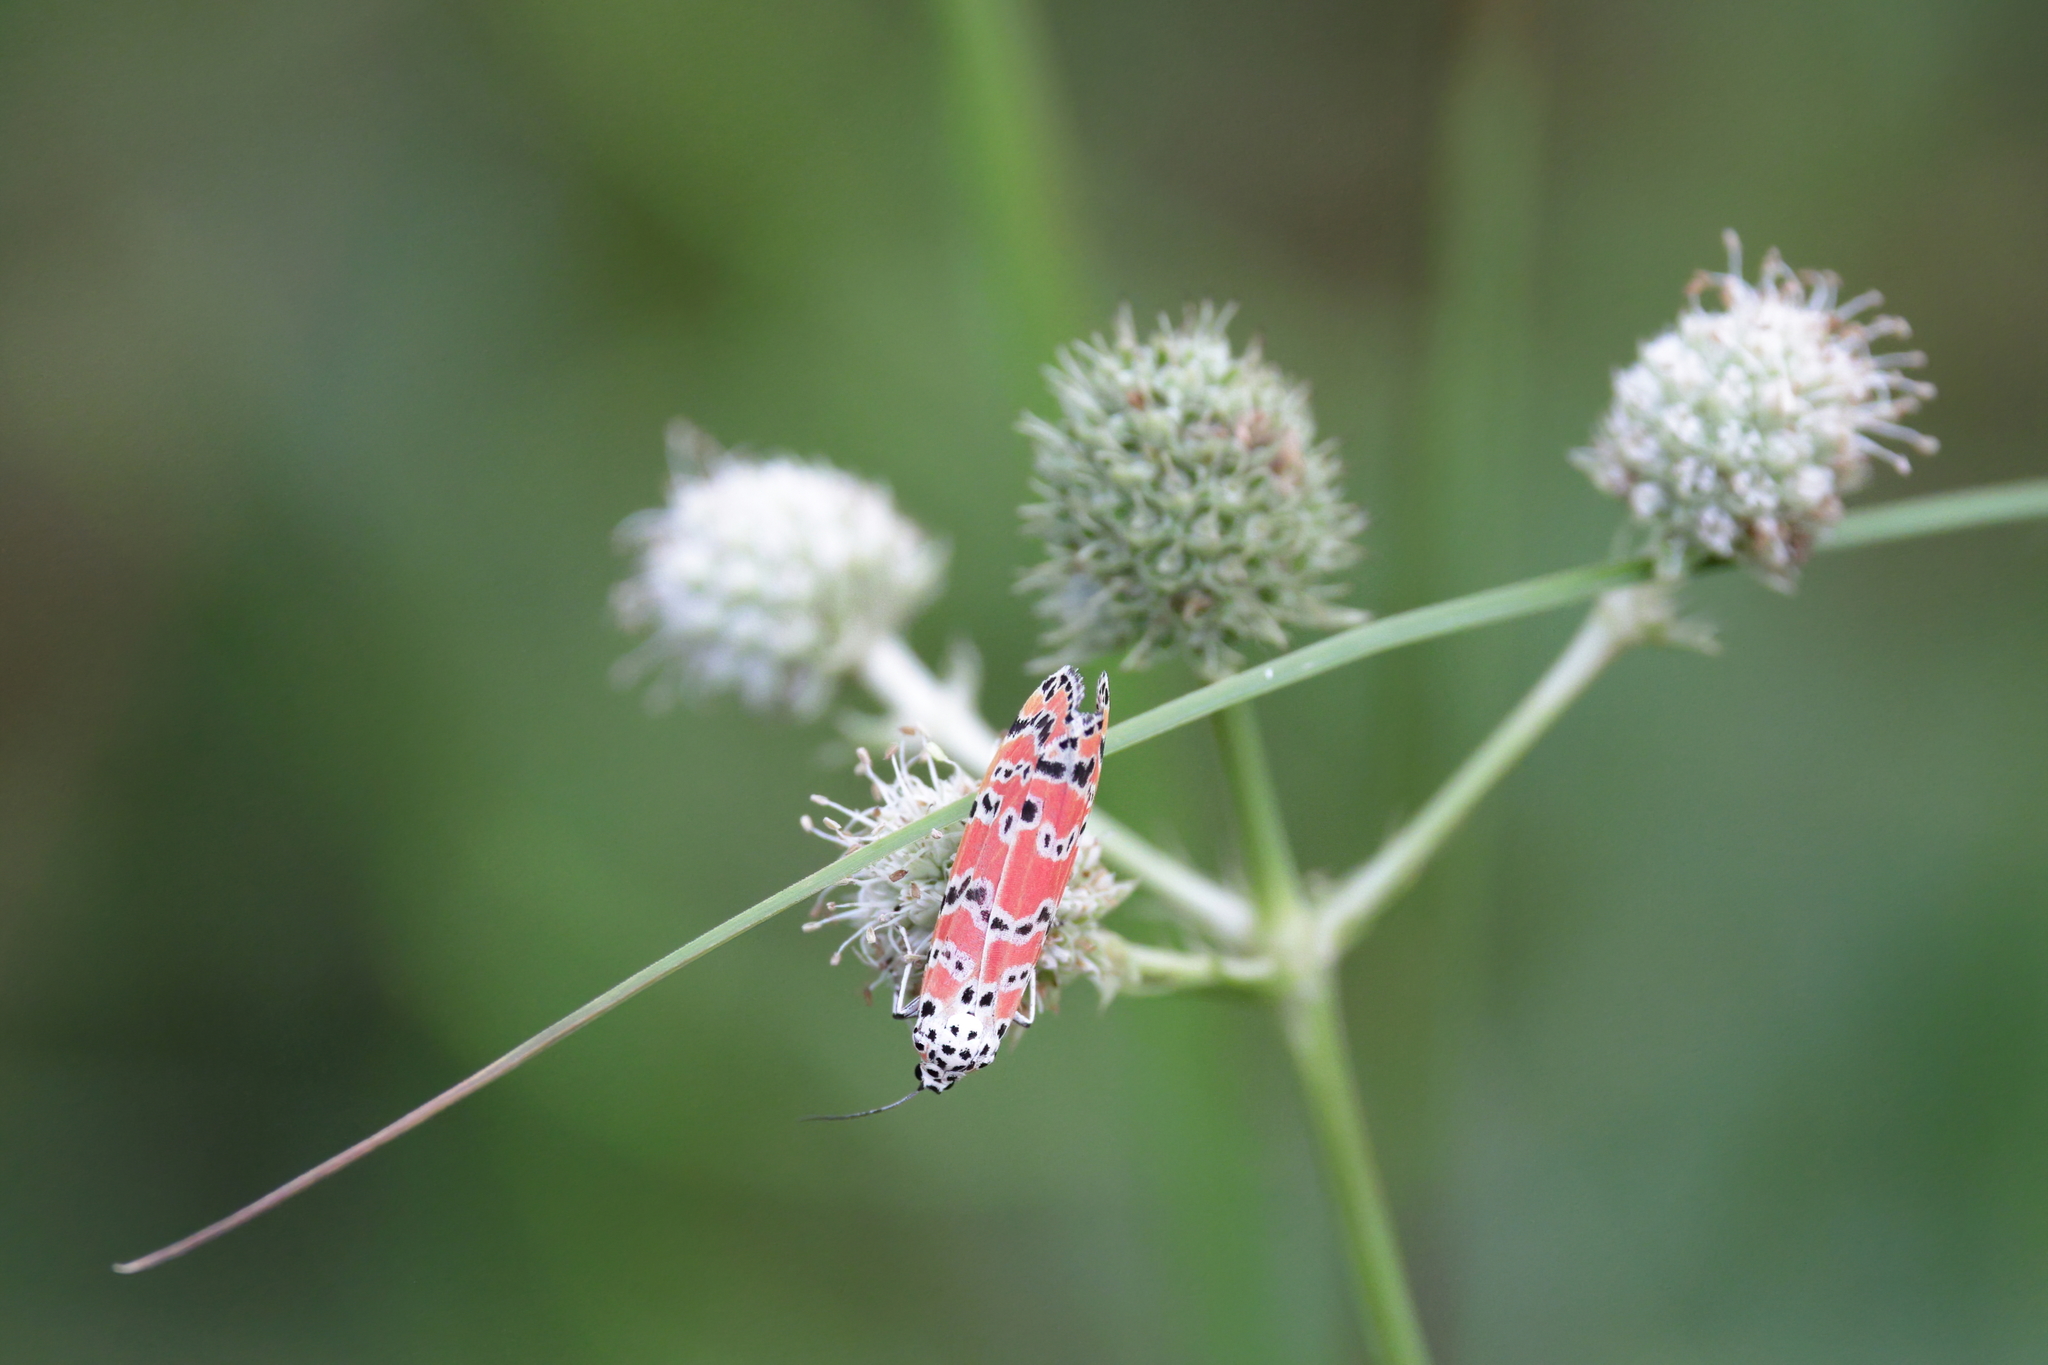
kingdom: Animalia
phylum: Arthropoda
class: Insecta
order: Lepidoptera
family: Erebidae
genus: Utetheisa
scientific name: Utetheisa ornatrix
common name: Beautiful utetheisa
